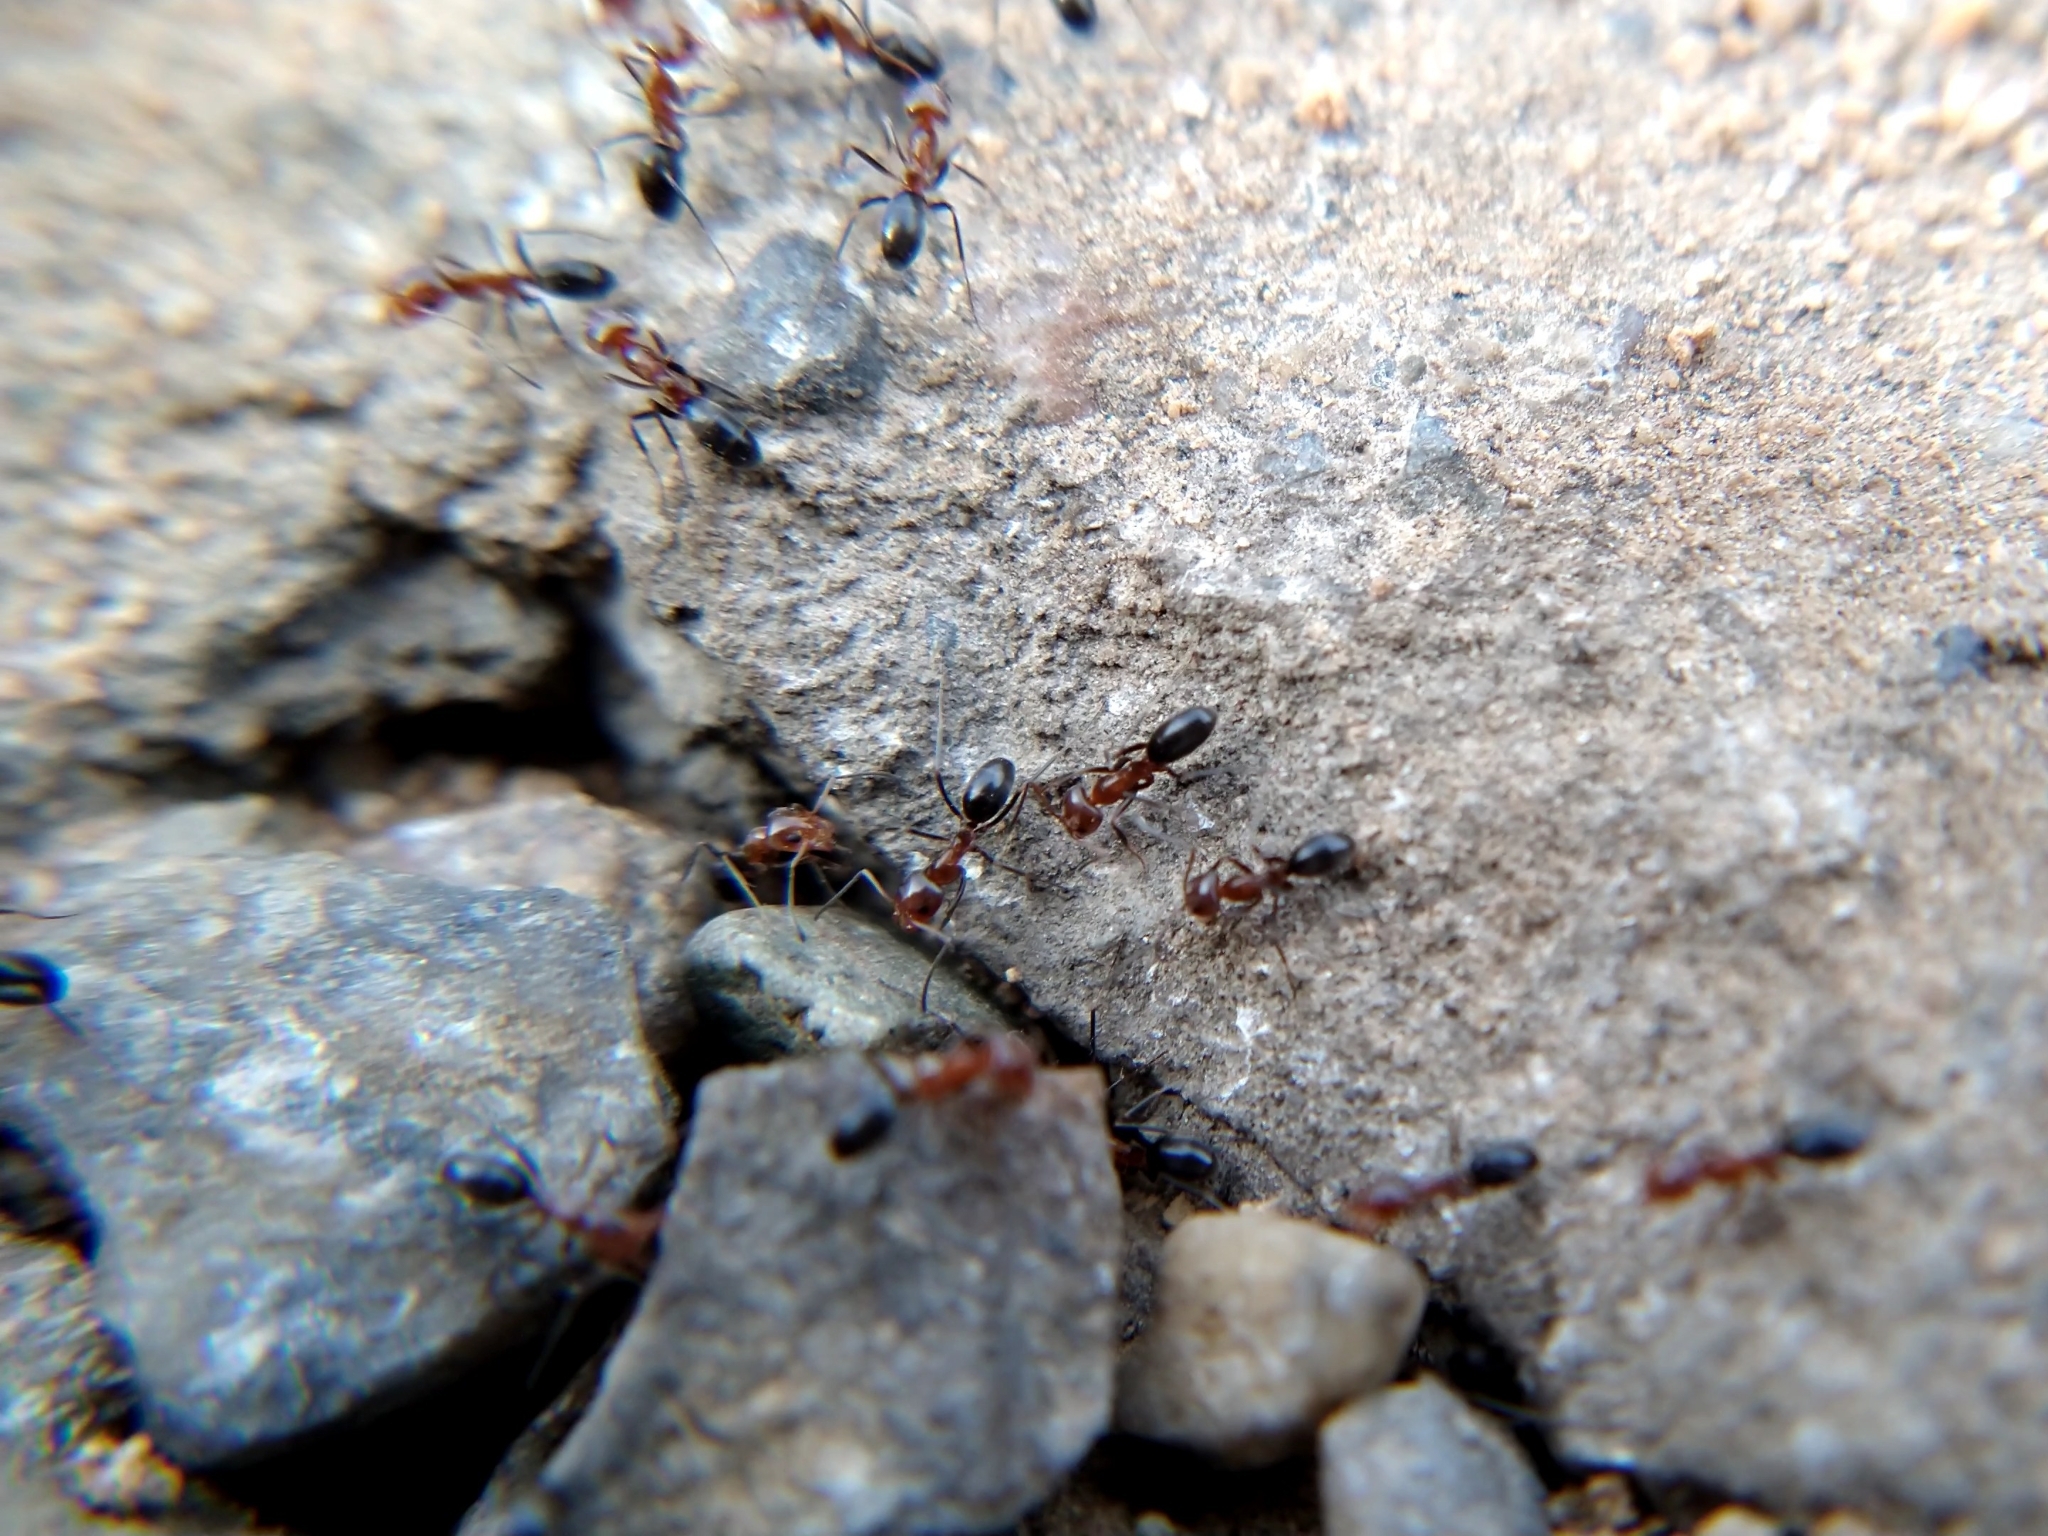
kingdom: Animalia
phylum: Arthropoda
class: Insecta
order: Hymenoptera
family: Formicidae
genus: Dorymyrmex
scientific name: Dorymyrmex bicolor
